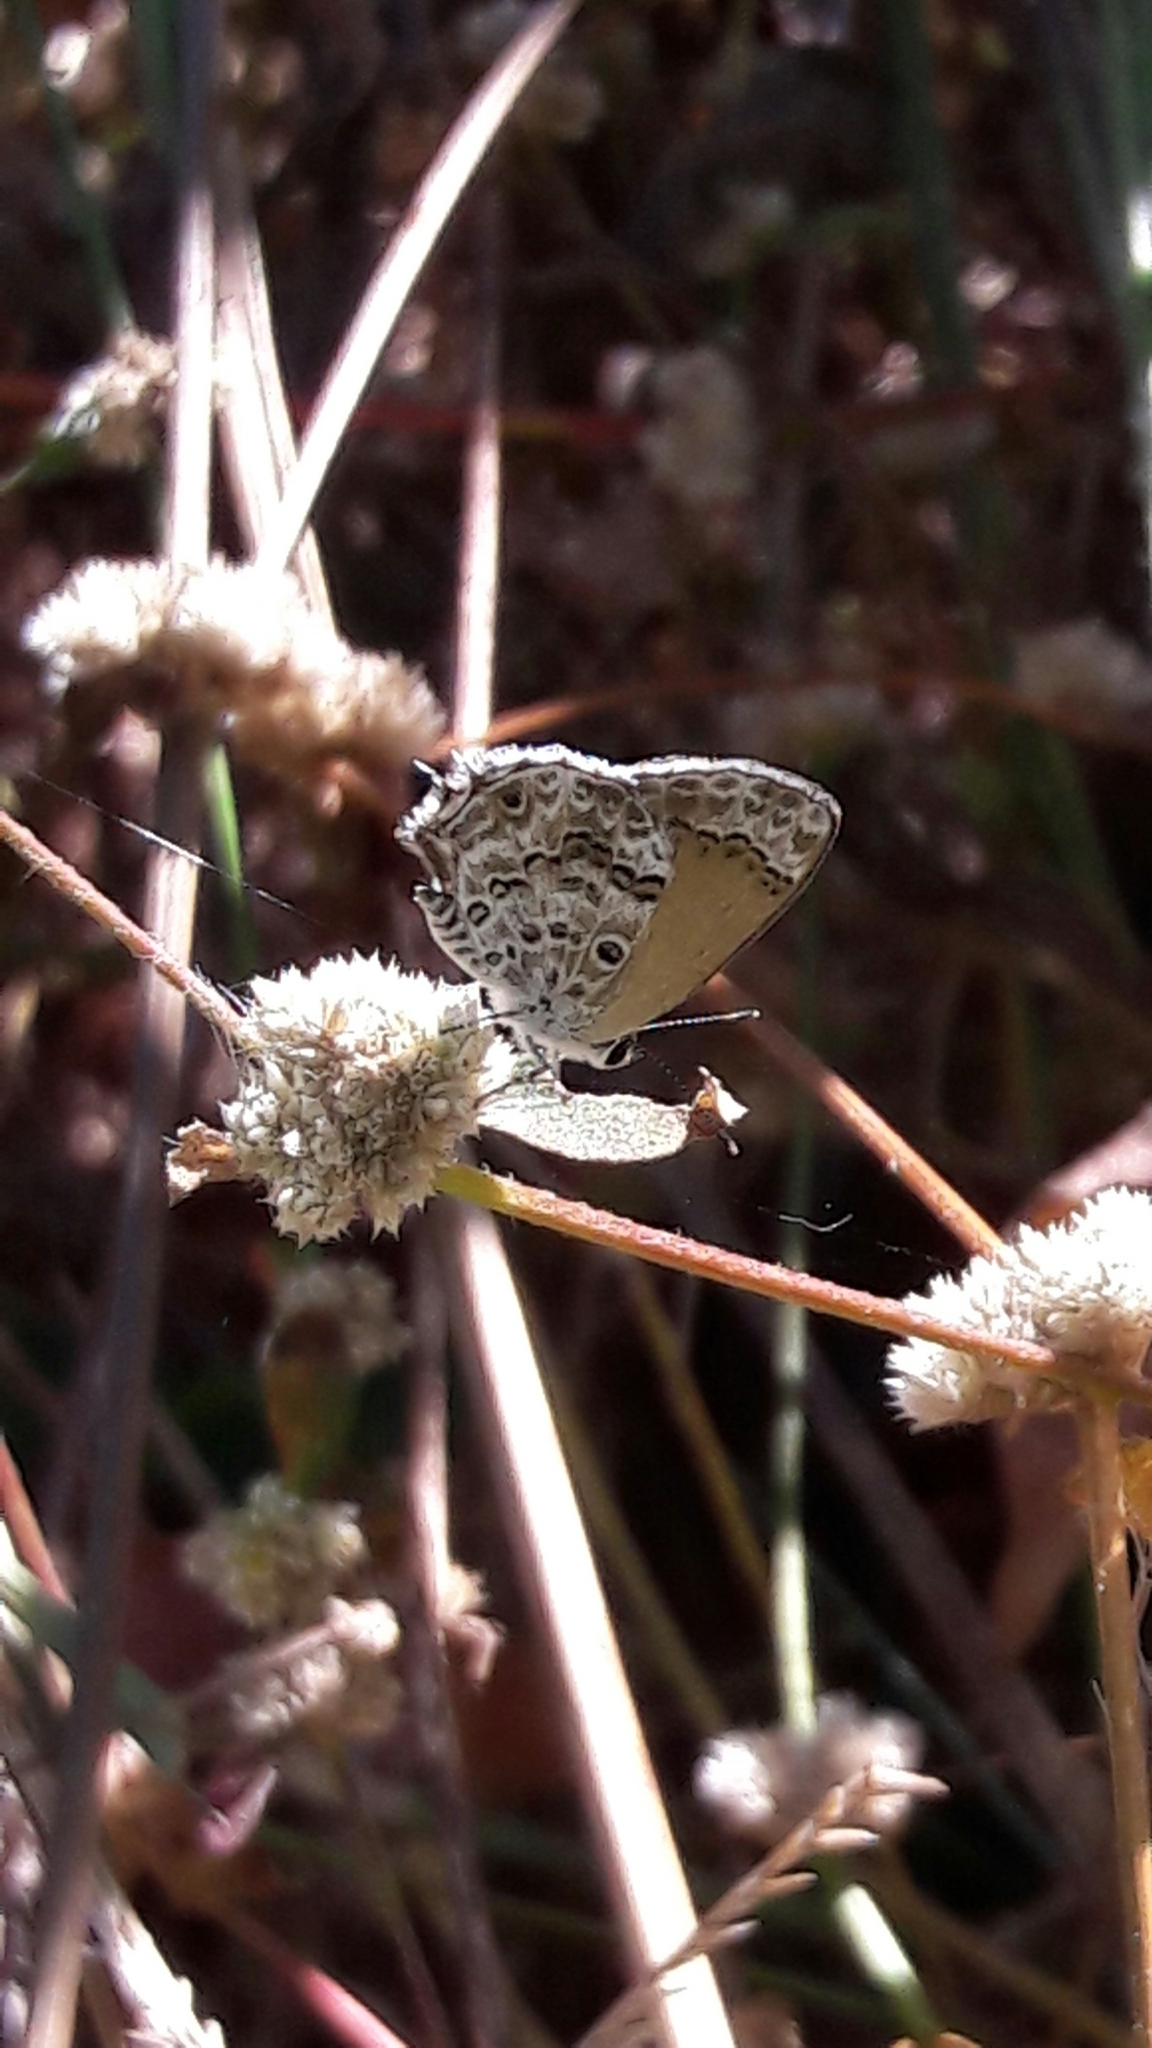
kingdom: Animalia
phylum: Arthropoda
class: Insecta
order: Lepidoptera
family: Lycaenidae
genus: Strymon
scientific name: Strymon astiocha
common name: Gray-spotted scrub-hairstreak
